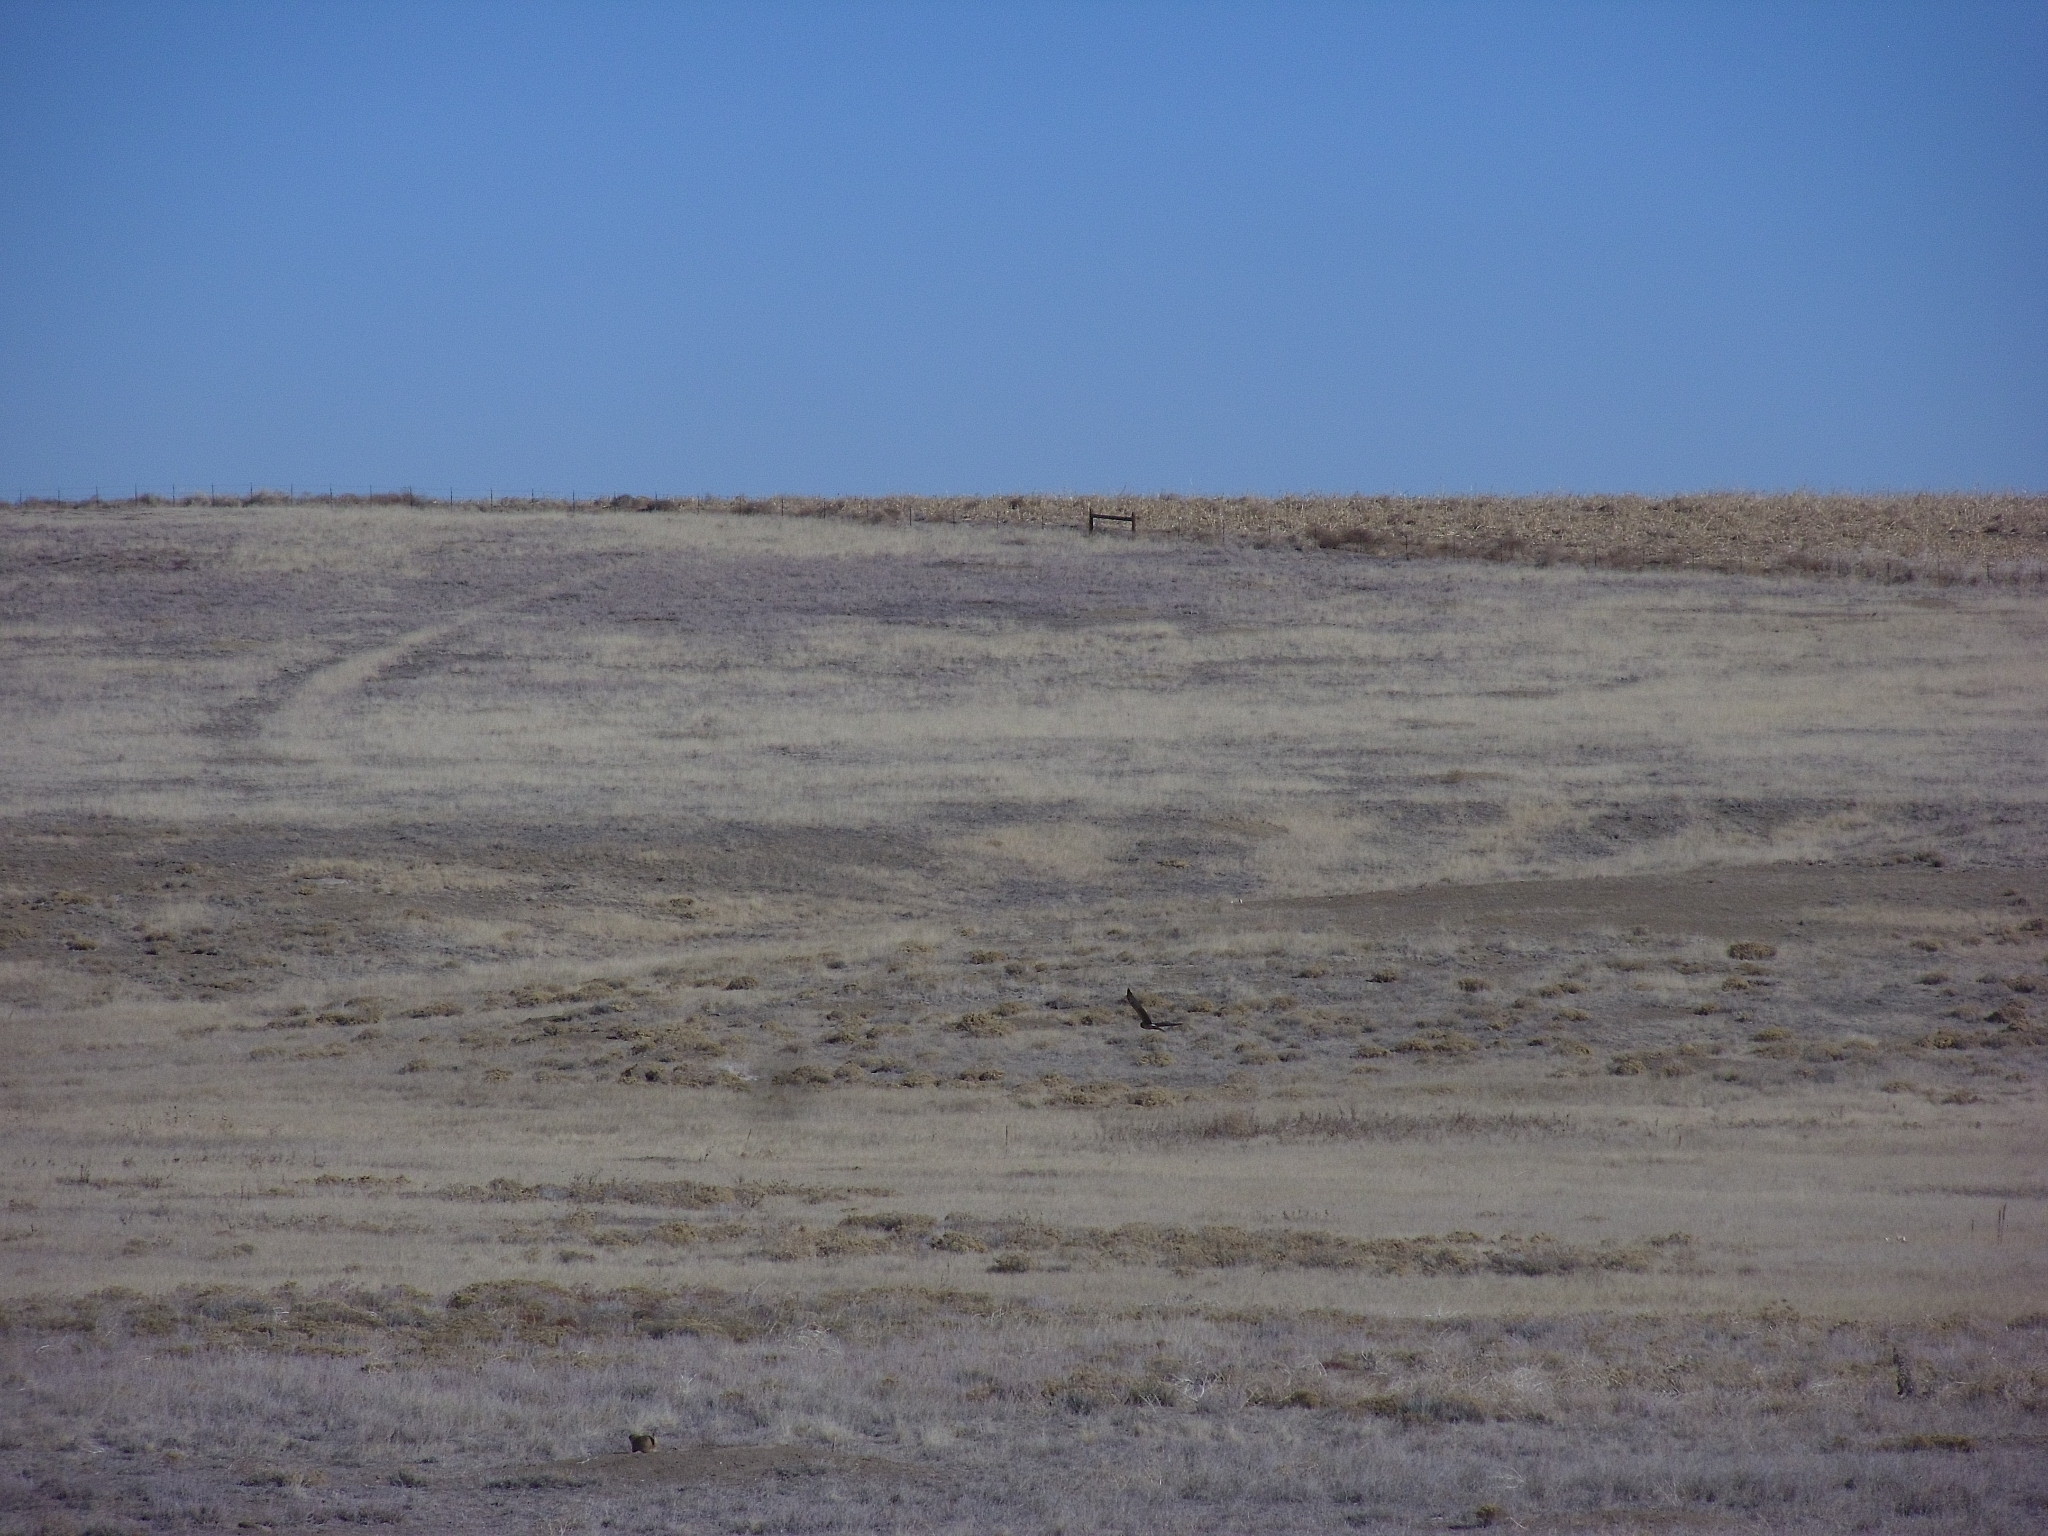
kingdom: Animalia
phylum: Chordata
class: Aves
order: Accipitriformes
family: Accipitridae
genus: Circus
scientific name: Circus cyaneus
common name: Hen harrier
